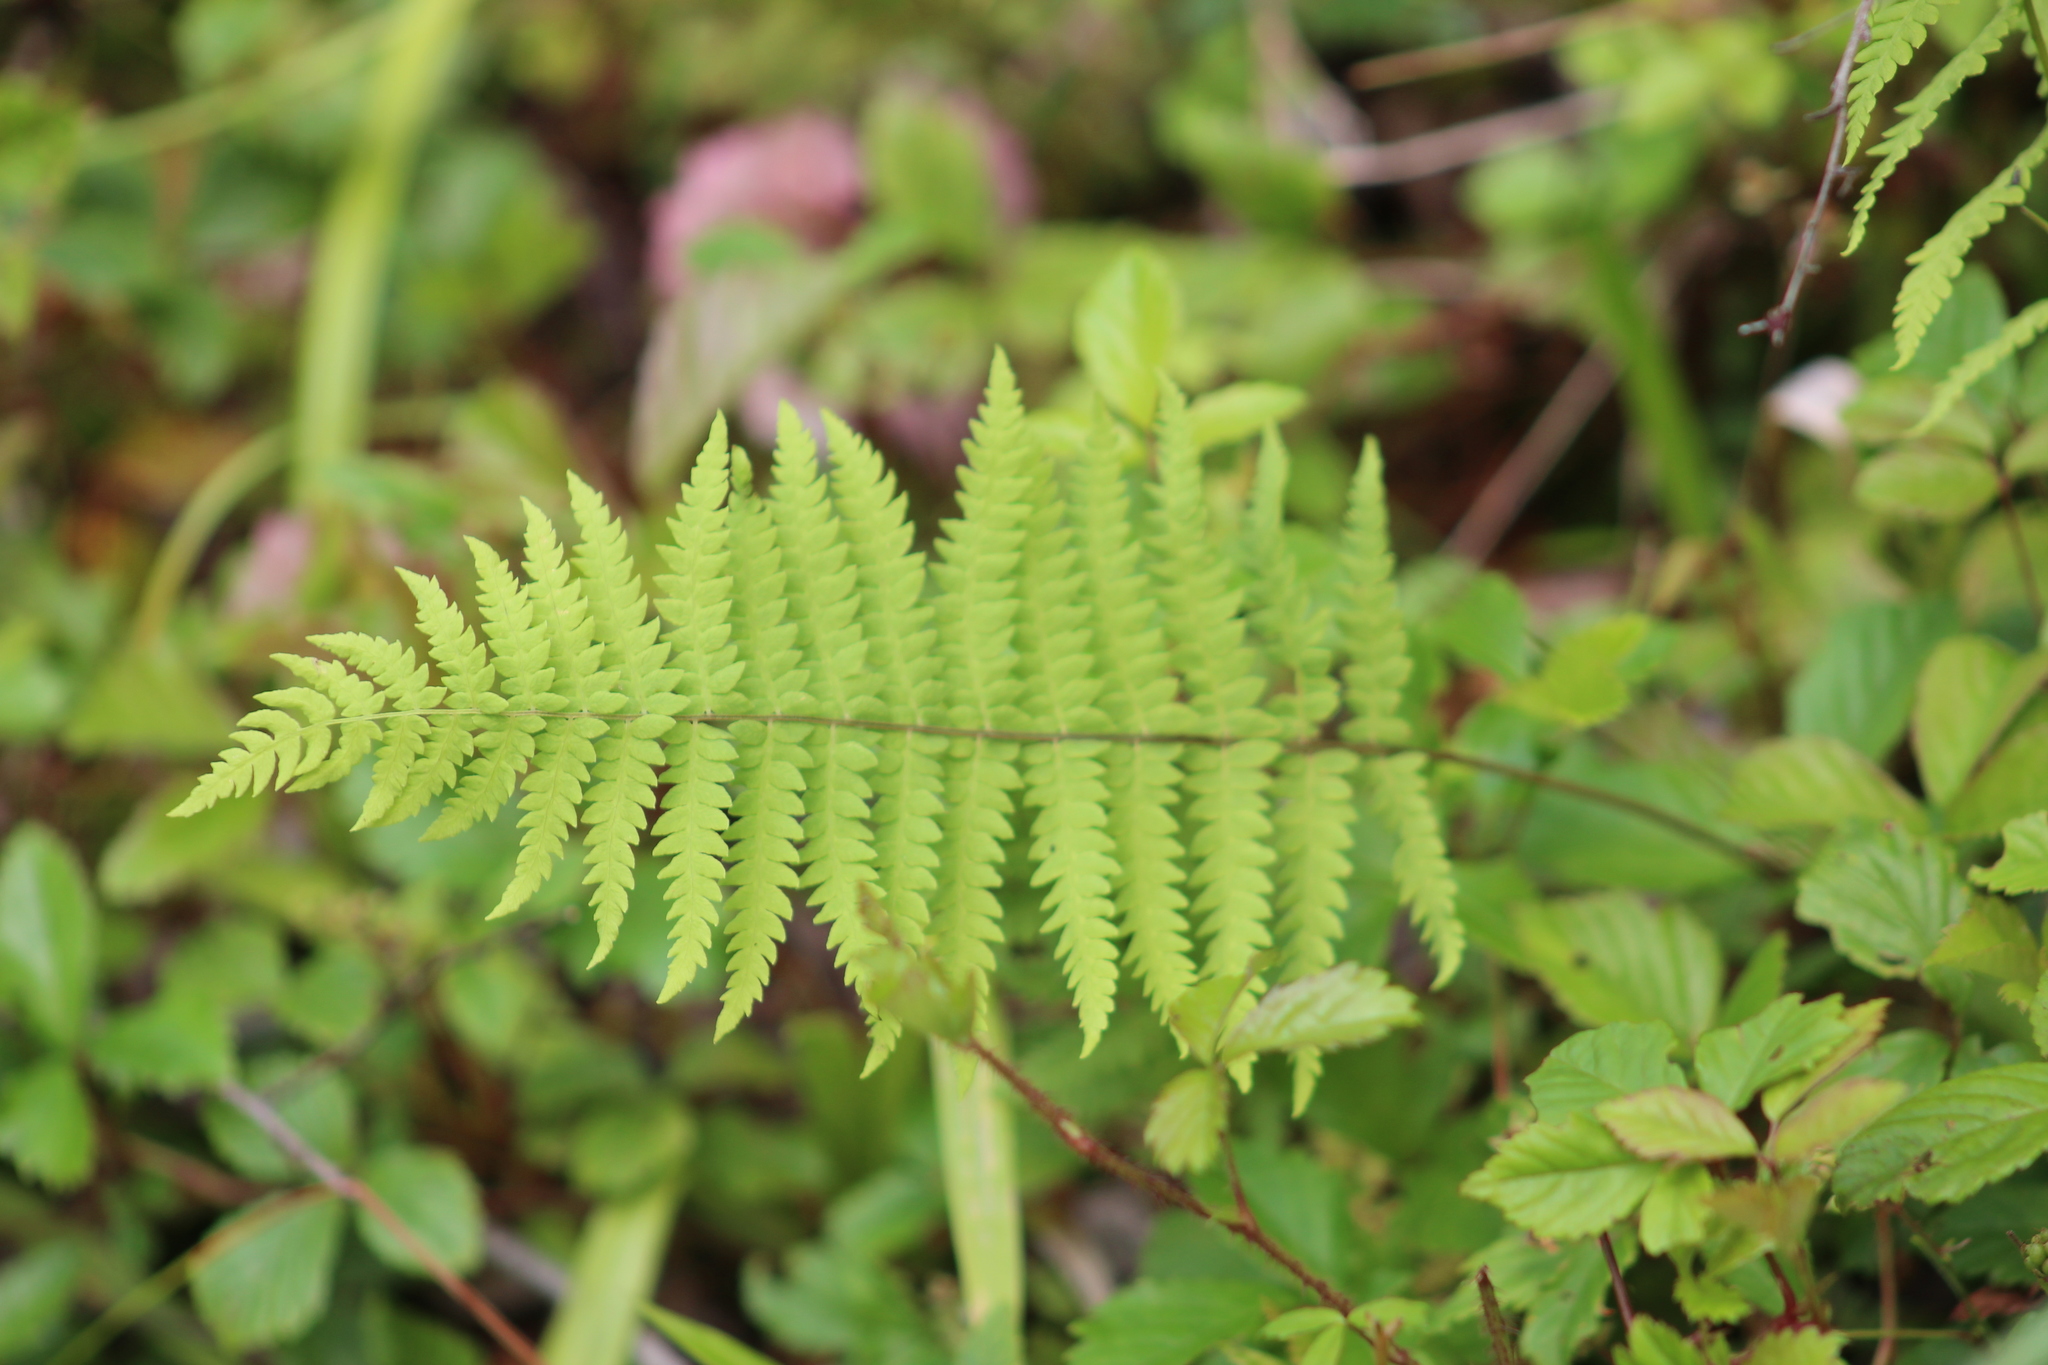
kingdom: Plantae
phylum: Tracheophyta
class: Polypodiopsida
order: Polypodiales
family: Thelypteridaceae
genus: Thelypteris
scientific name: Thelypteris palustris
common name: Marsh fern
